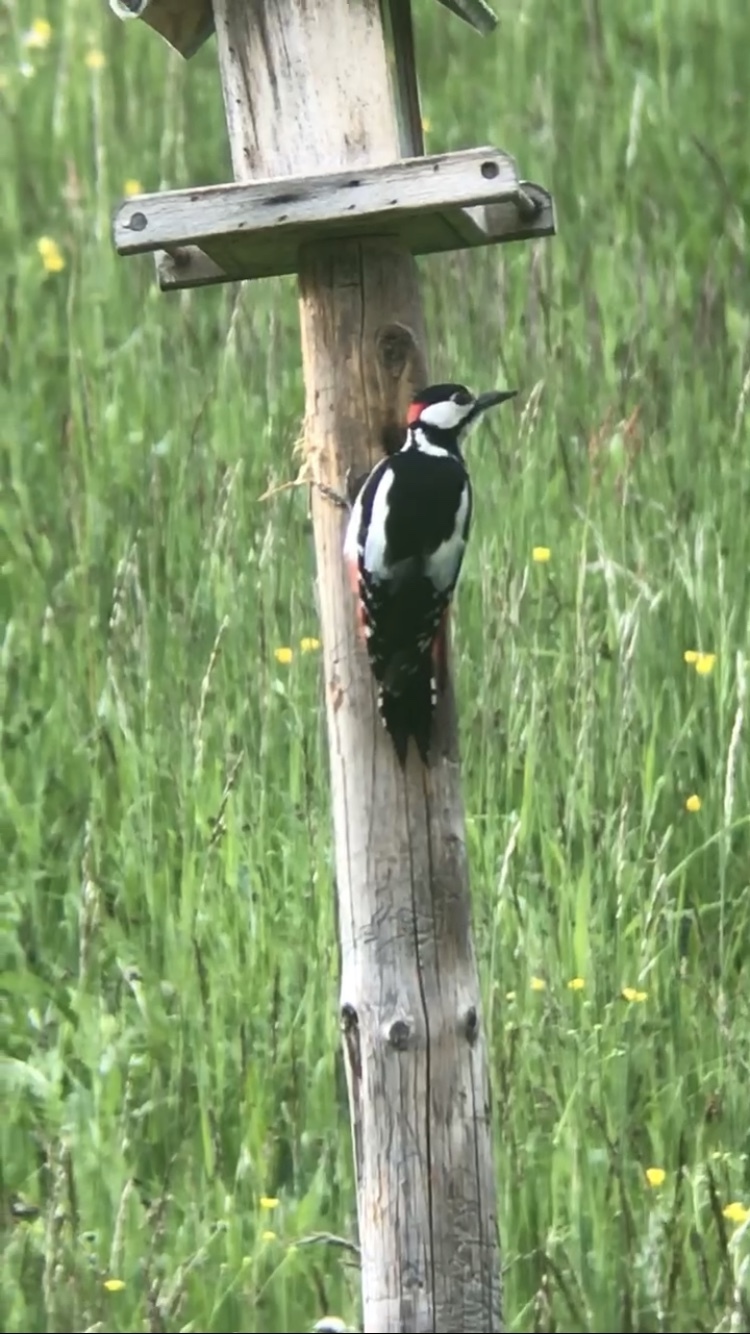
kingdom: Animalia
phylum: Chordata
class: Aves
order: Piciformes
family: Picidae
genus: Dendrocopos
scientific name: Dendrocopos major
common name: Great spotted woodpecker
